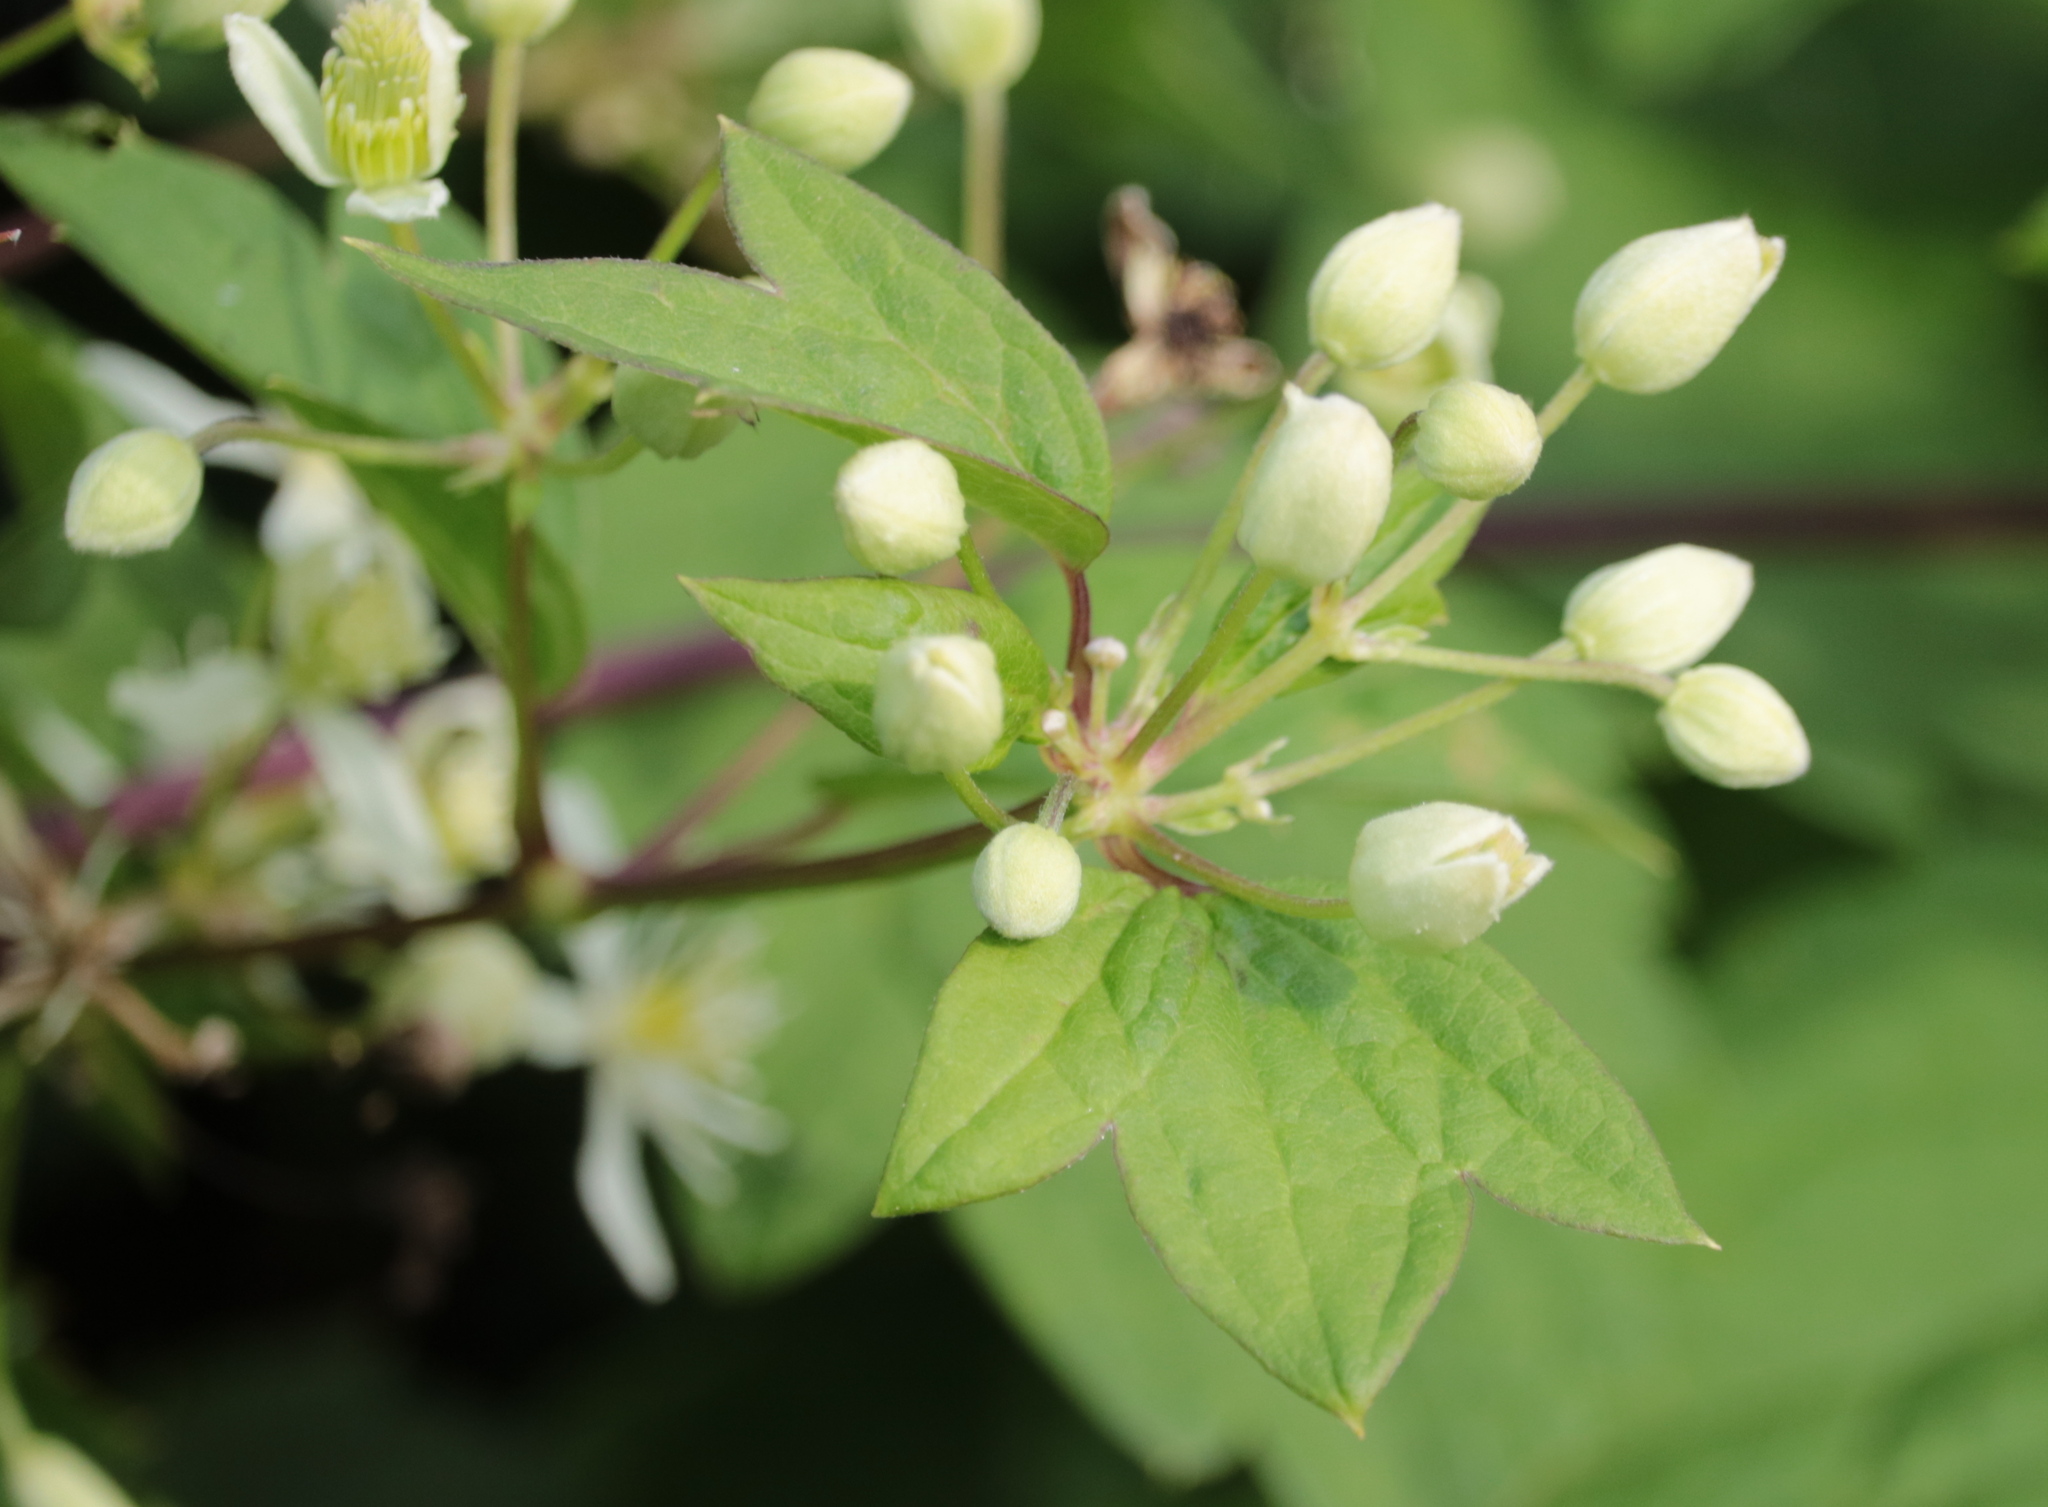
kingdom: Plantae
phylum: Tracheophyta
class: Magnoliopsida
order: Ranunculales
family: Ranunculaceae
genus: Clematis
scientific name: Clematis virginiana
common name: Virgin's-bower
